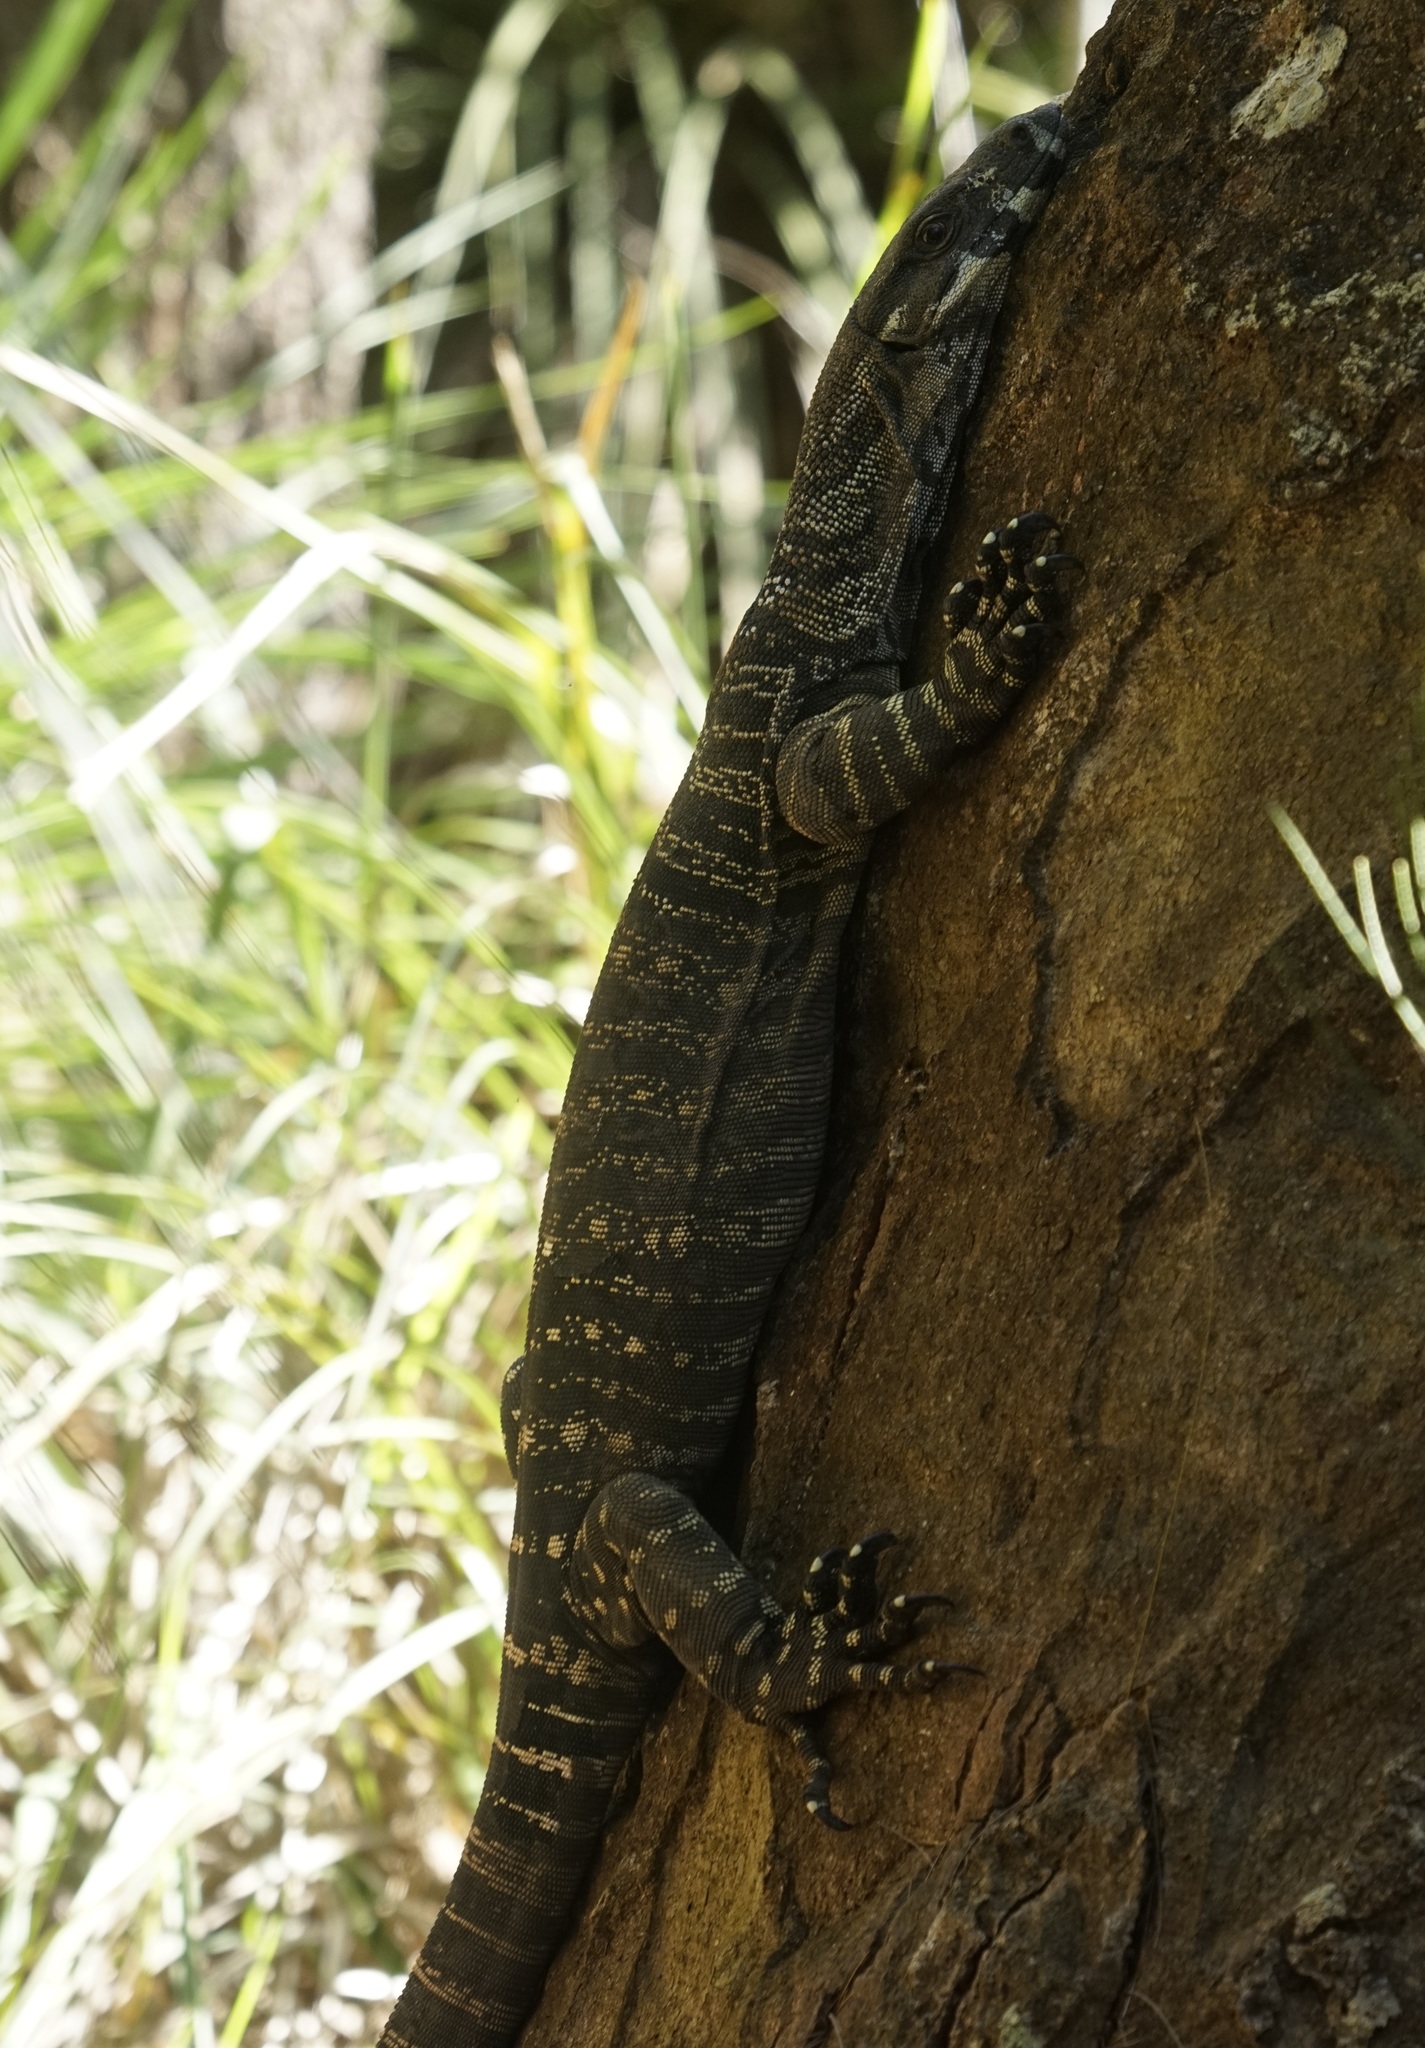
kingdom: Animalia
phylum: Chordata
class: Squamata
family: Varanidae
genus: Varanus
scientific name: Varanus varius
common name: Lace monitor
